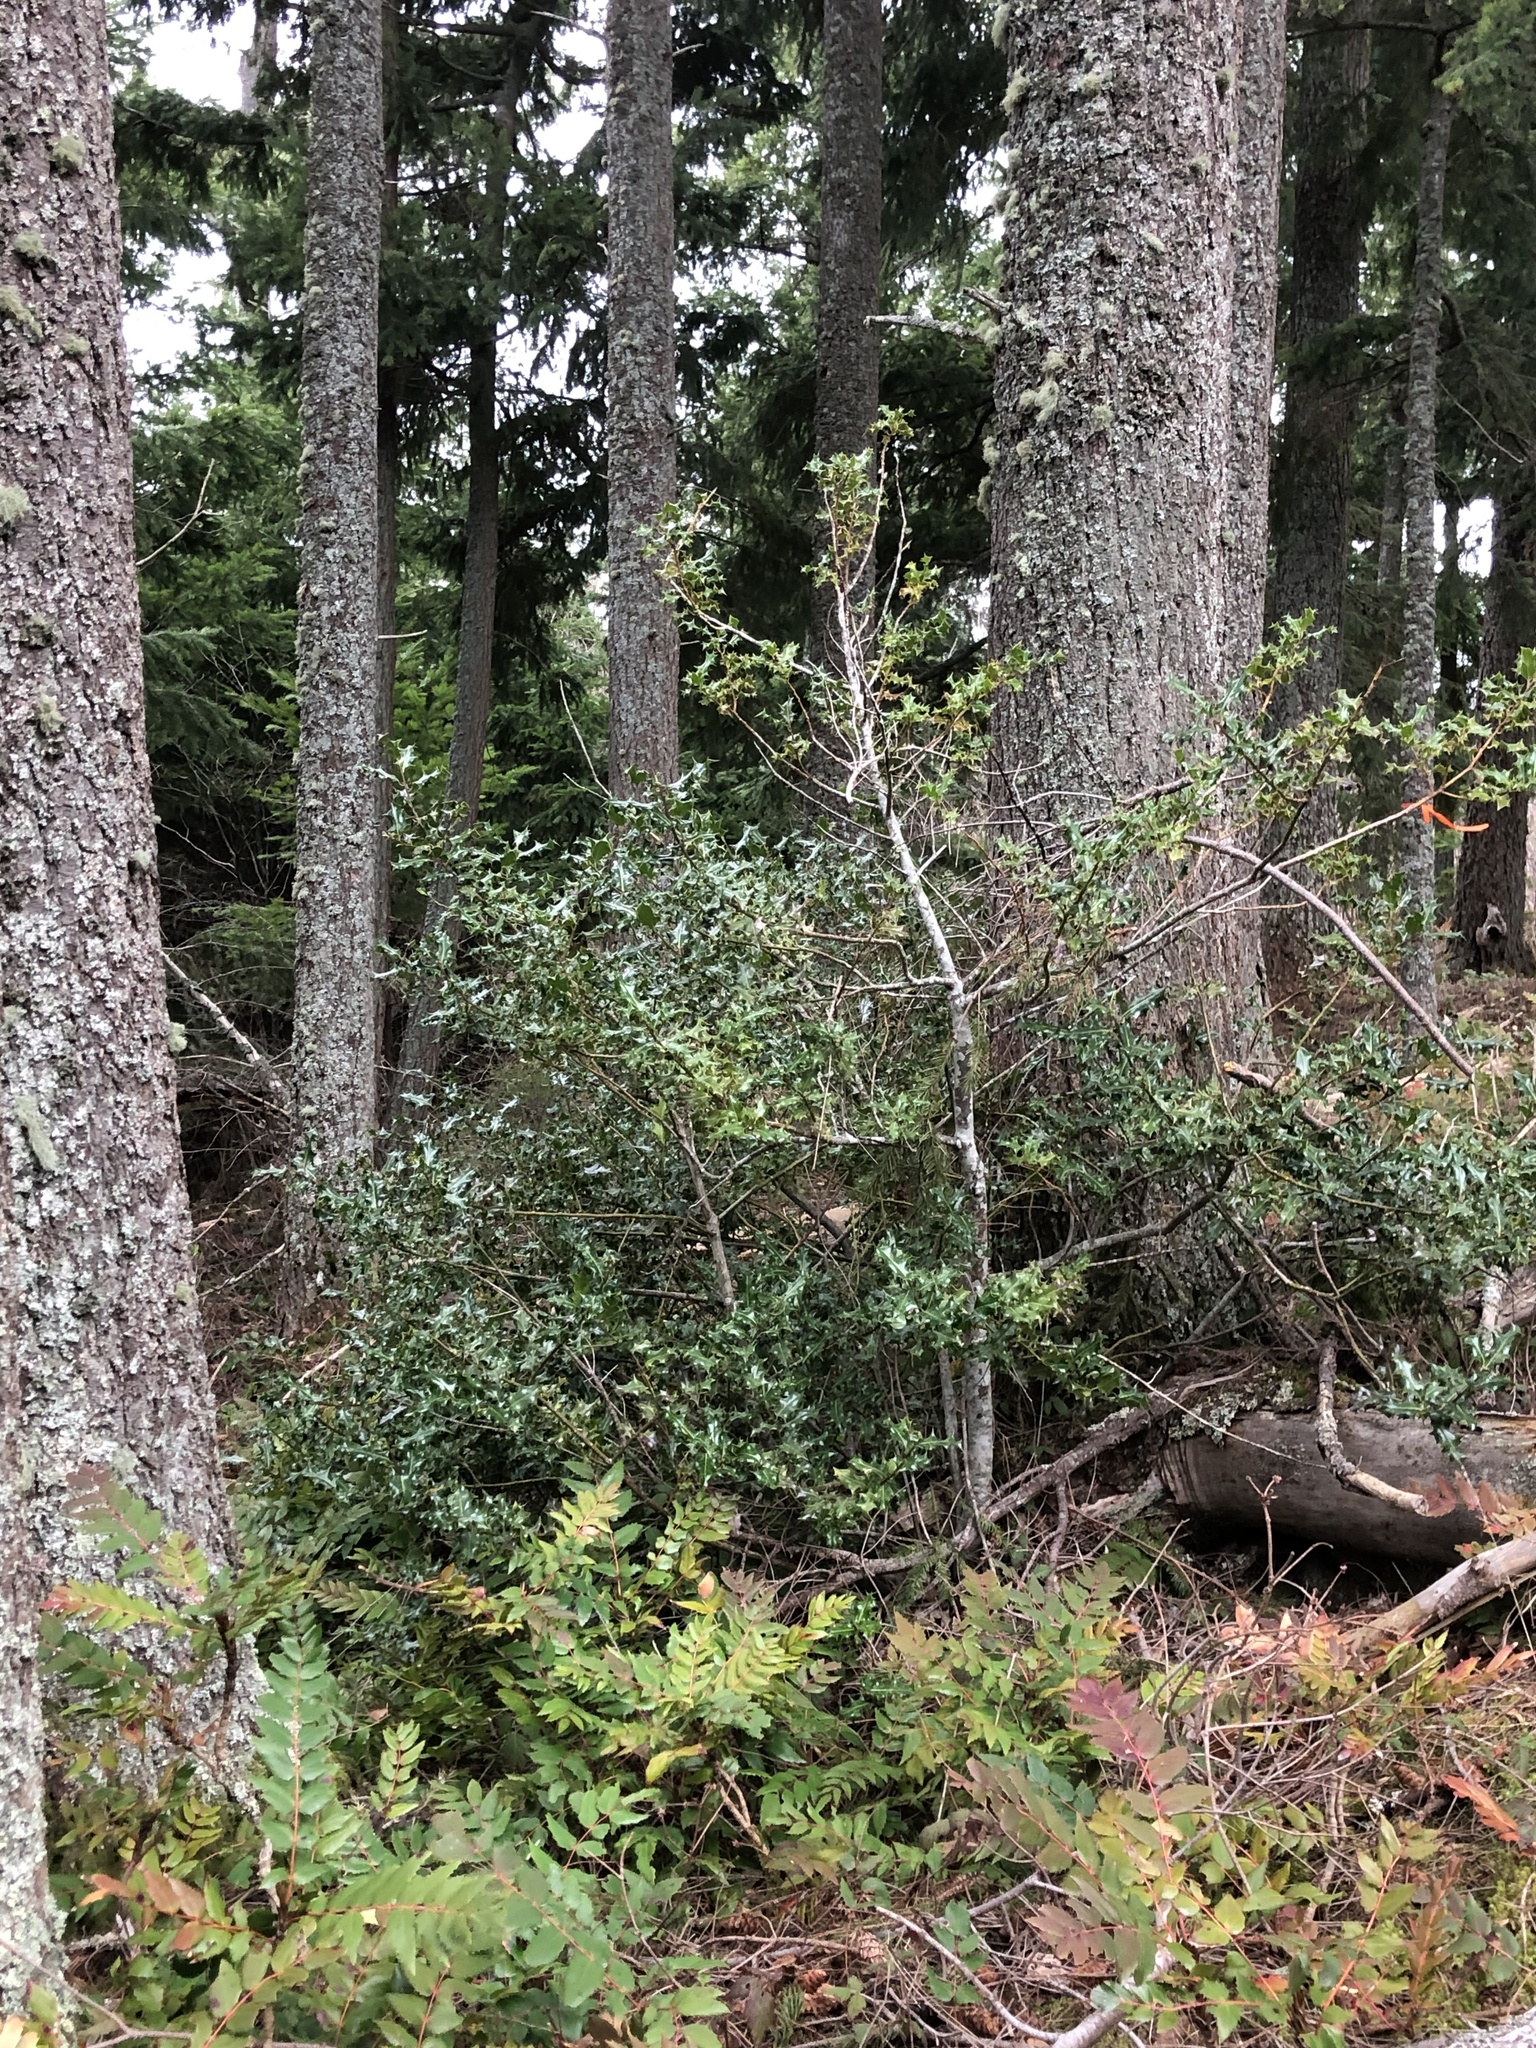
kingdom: Plantae
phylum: Tracheophyta
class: Magnoliopsida
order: Aquifoliales
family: Aquifoliaceae
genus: Ilex
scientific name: Ilex aquifolium
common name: English holly
